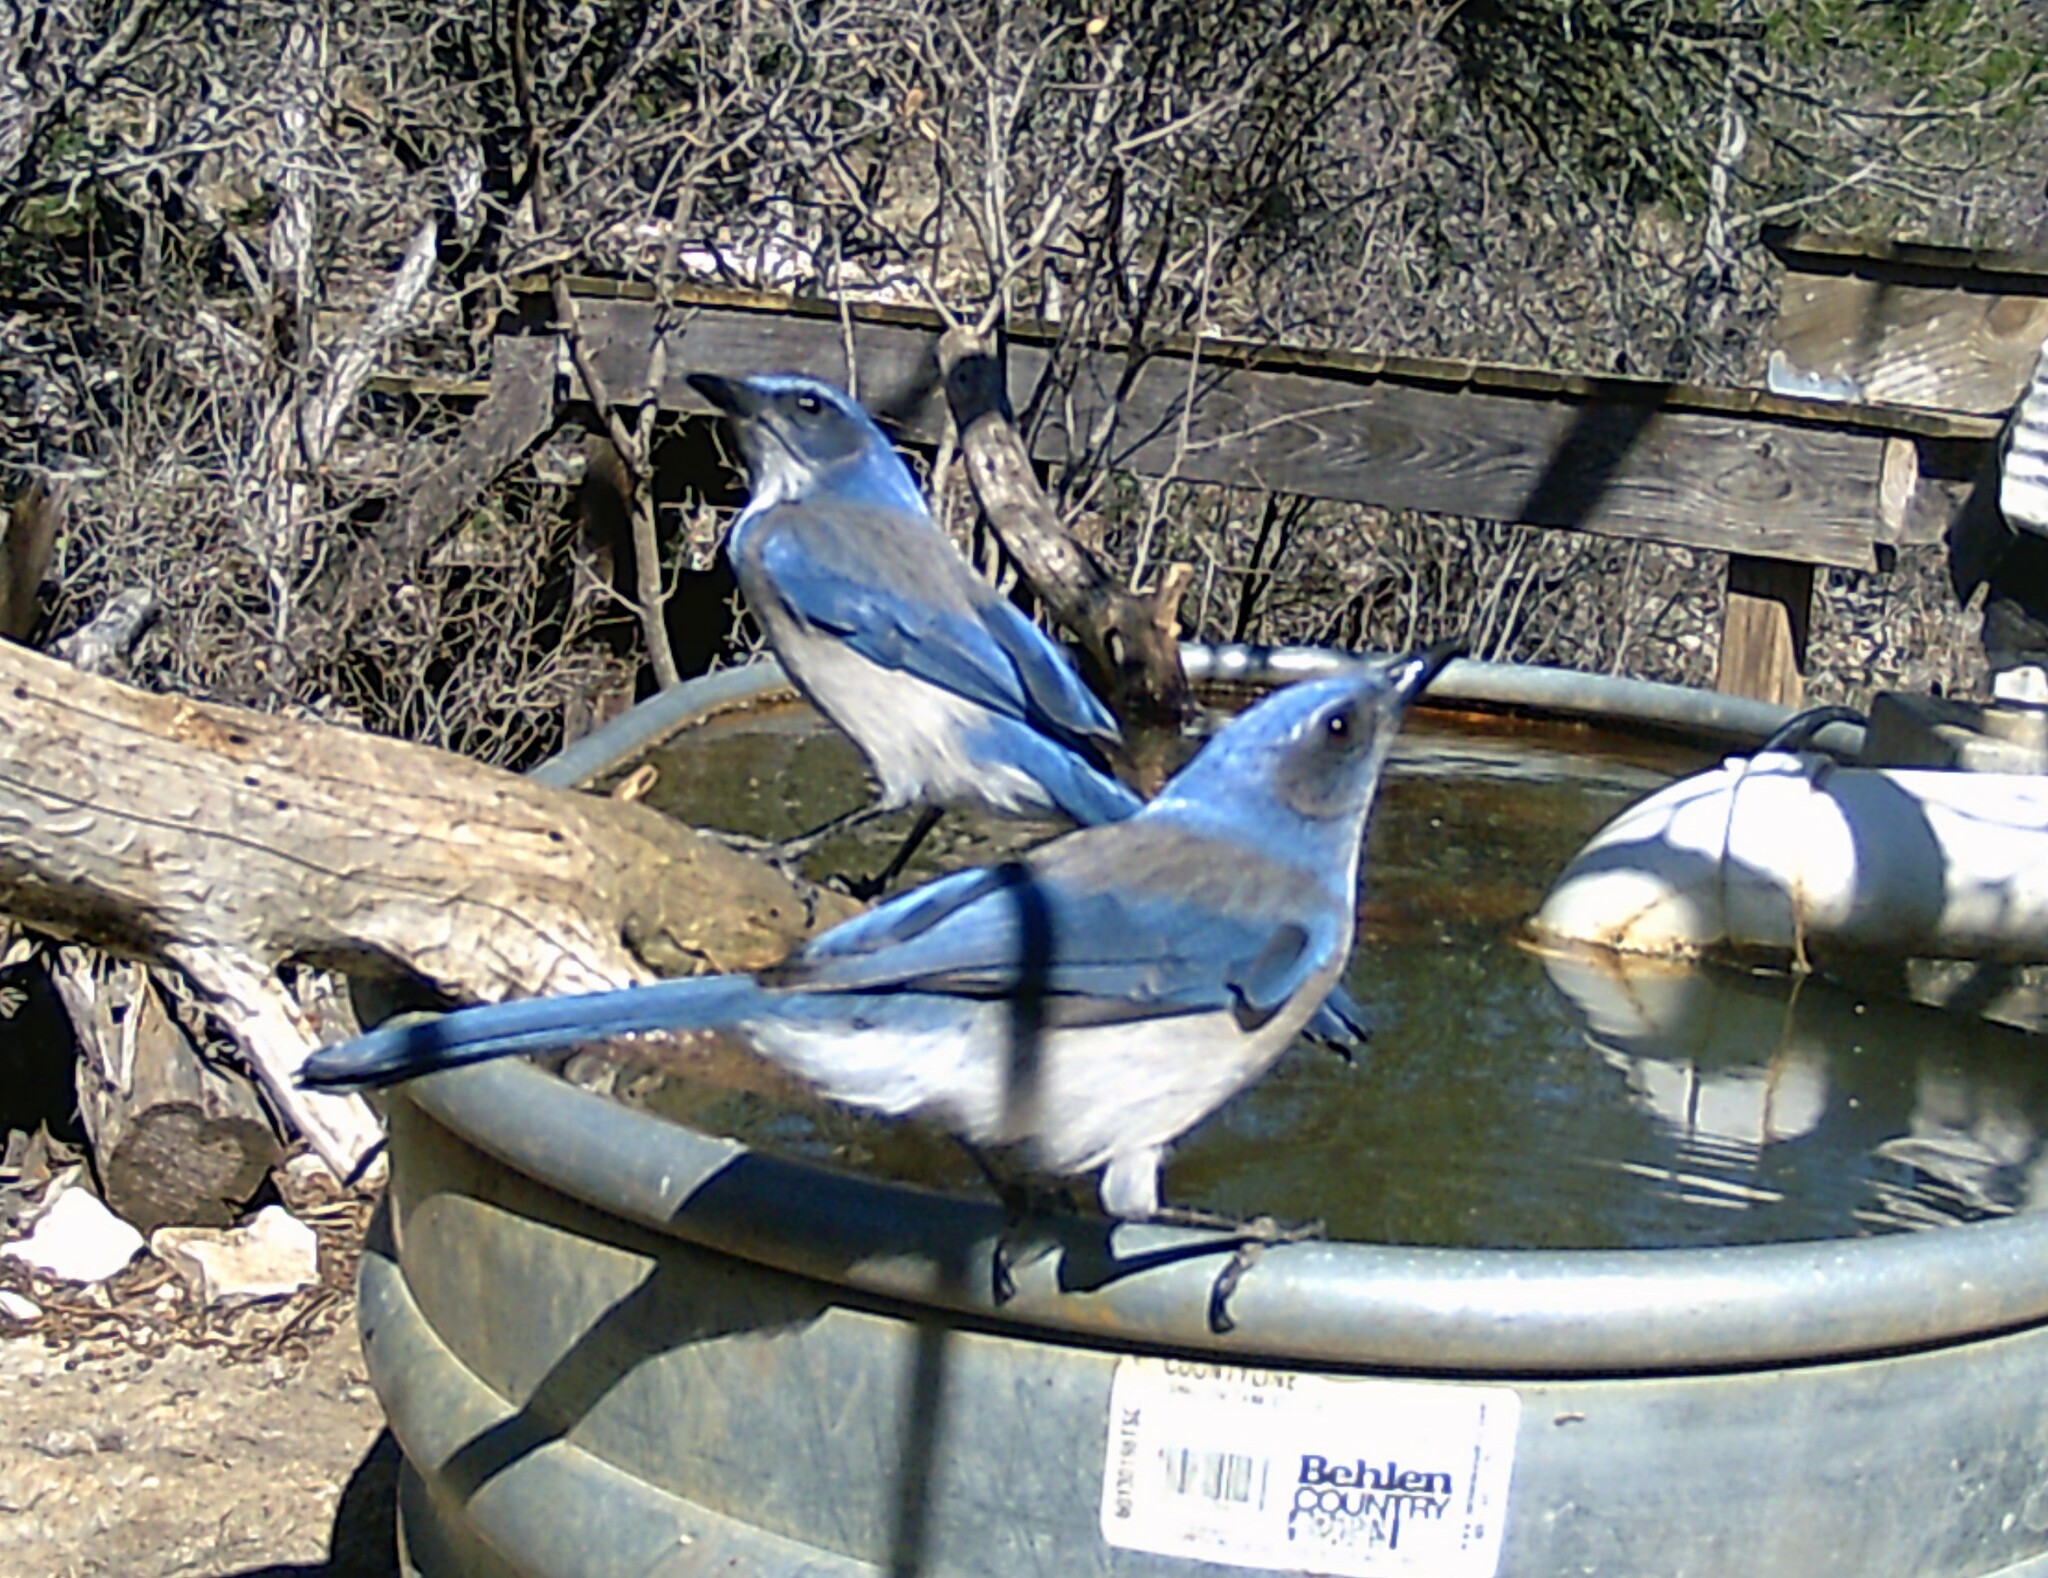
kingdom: Animalia
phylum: Chordata
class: Aves
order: Passeriformes
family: Corvidae
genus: Aphelocoma
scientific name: Aphelocoma woodhouseii
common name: Woodhouse's scrub-jay
